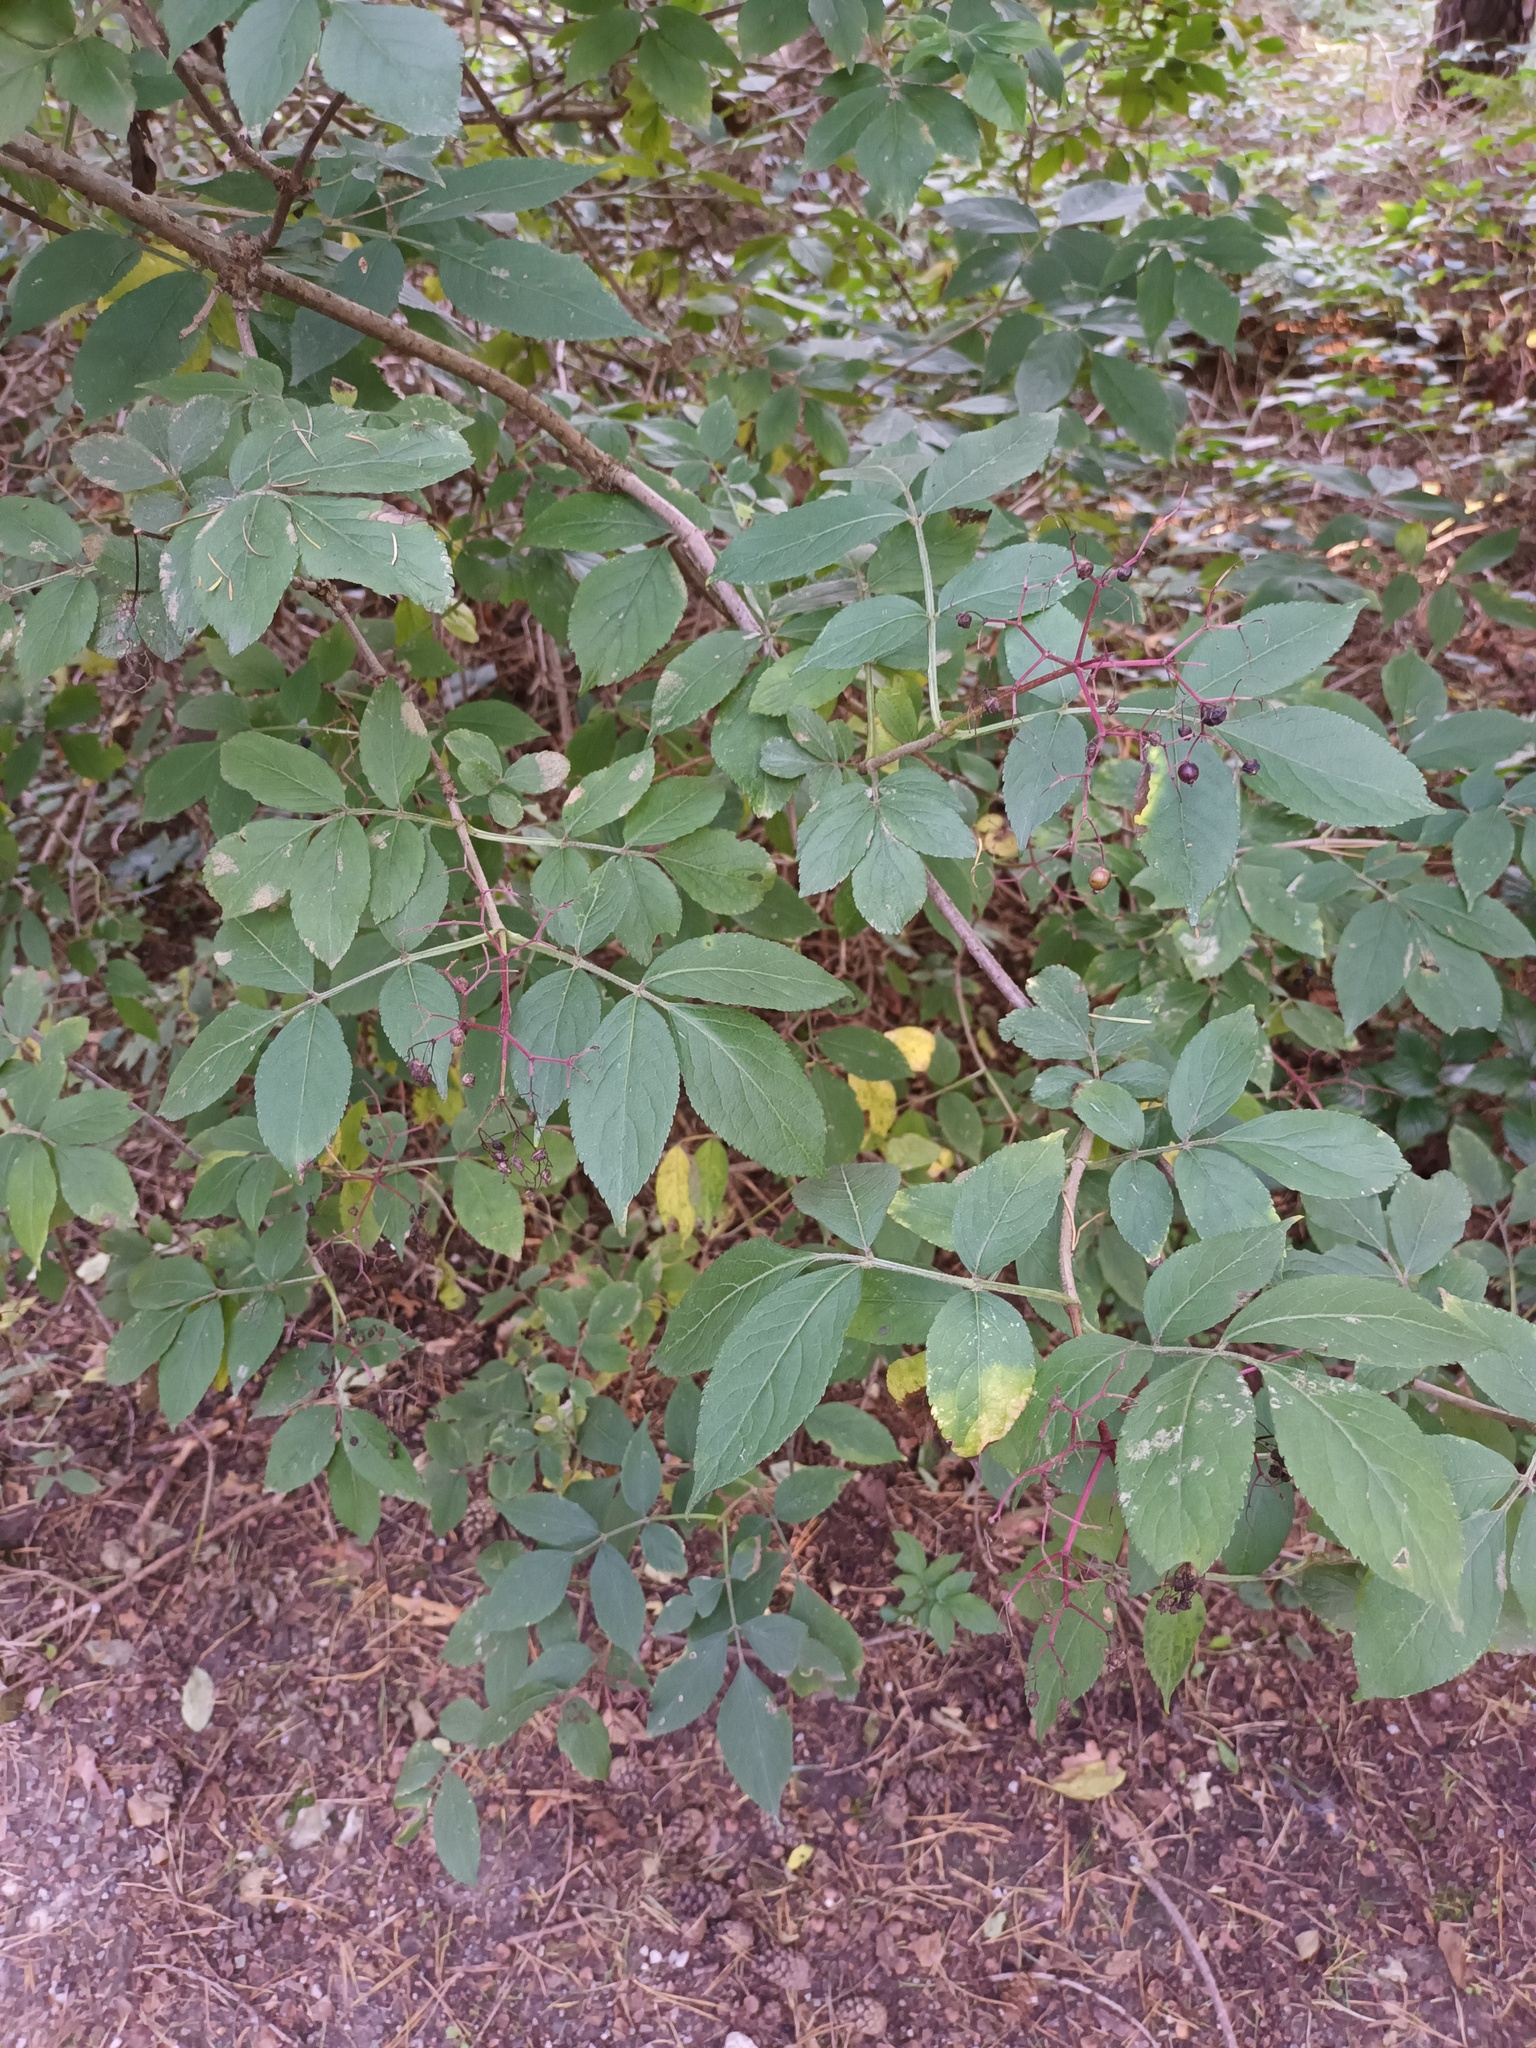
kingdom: Plantae
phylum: Tracheophyta
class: Magnoliopsida
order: Dipsacales
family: Viburnaceae
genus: Sambucus
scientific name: Sambucus nigra
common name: Elder
